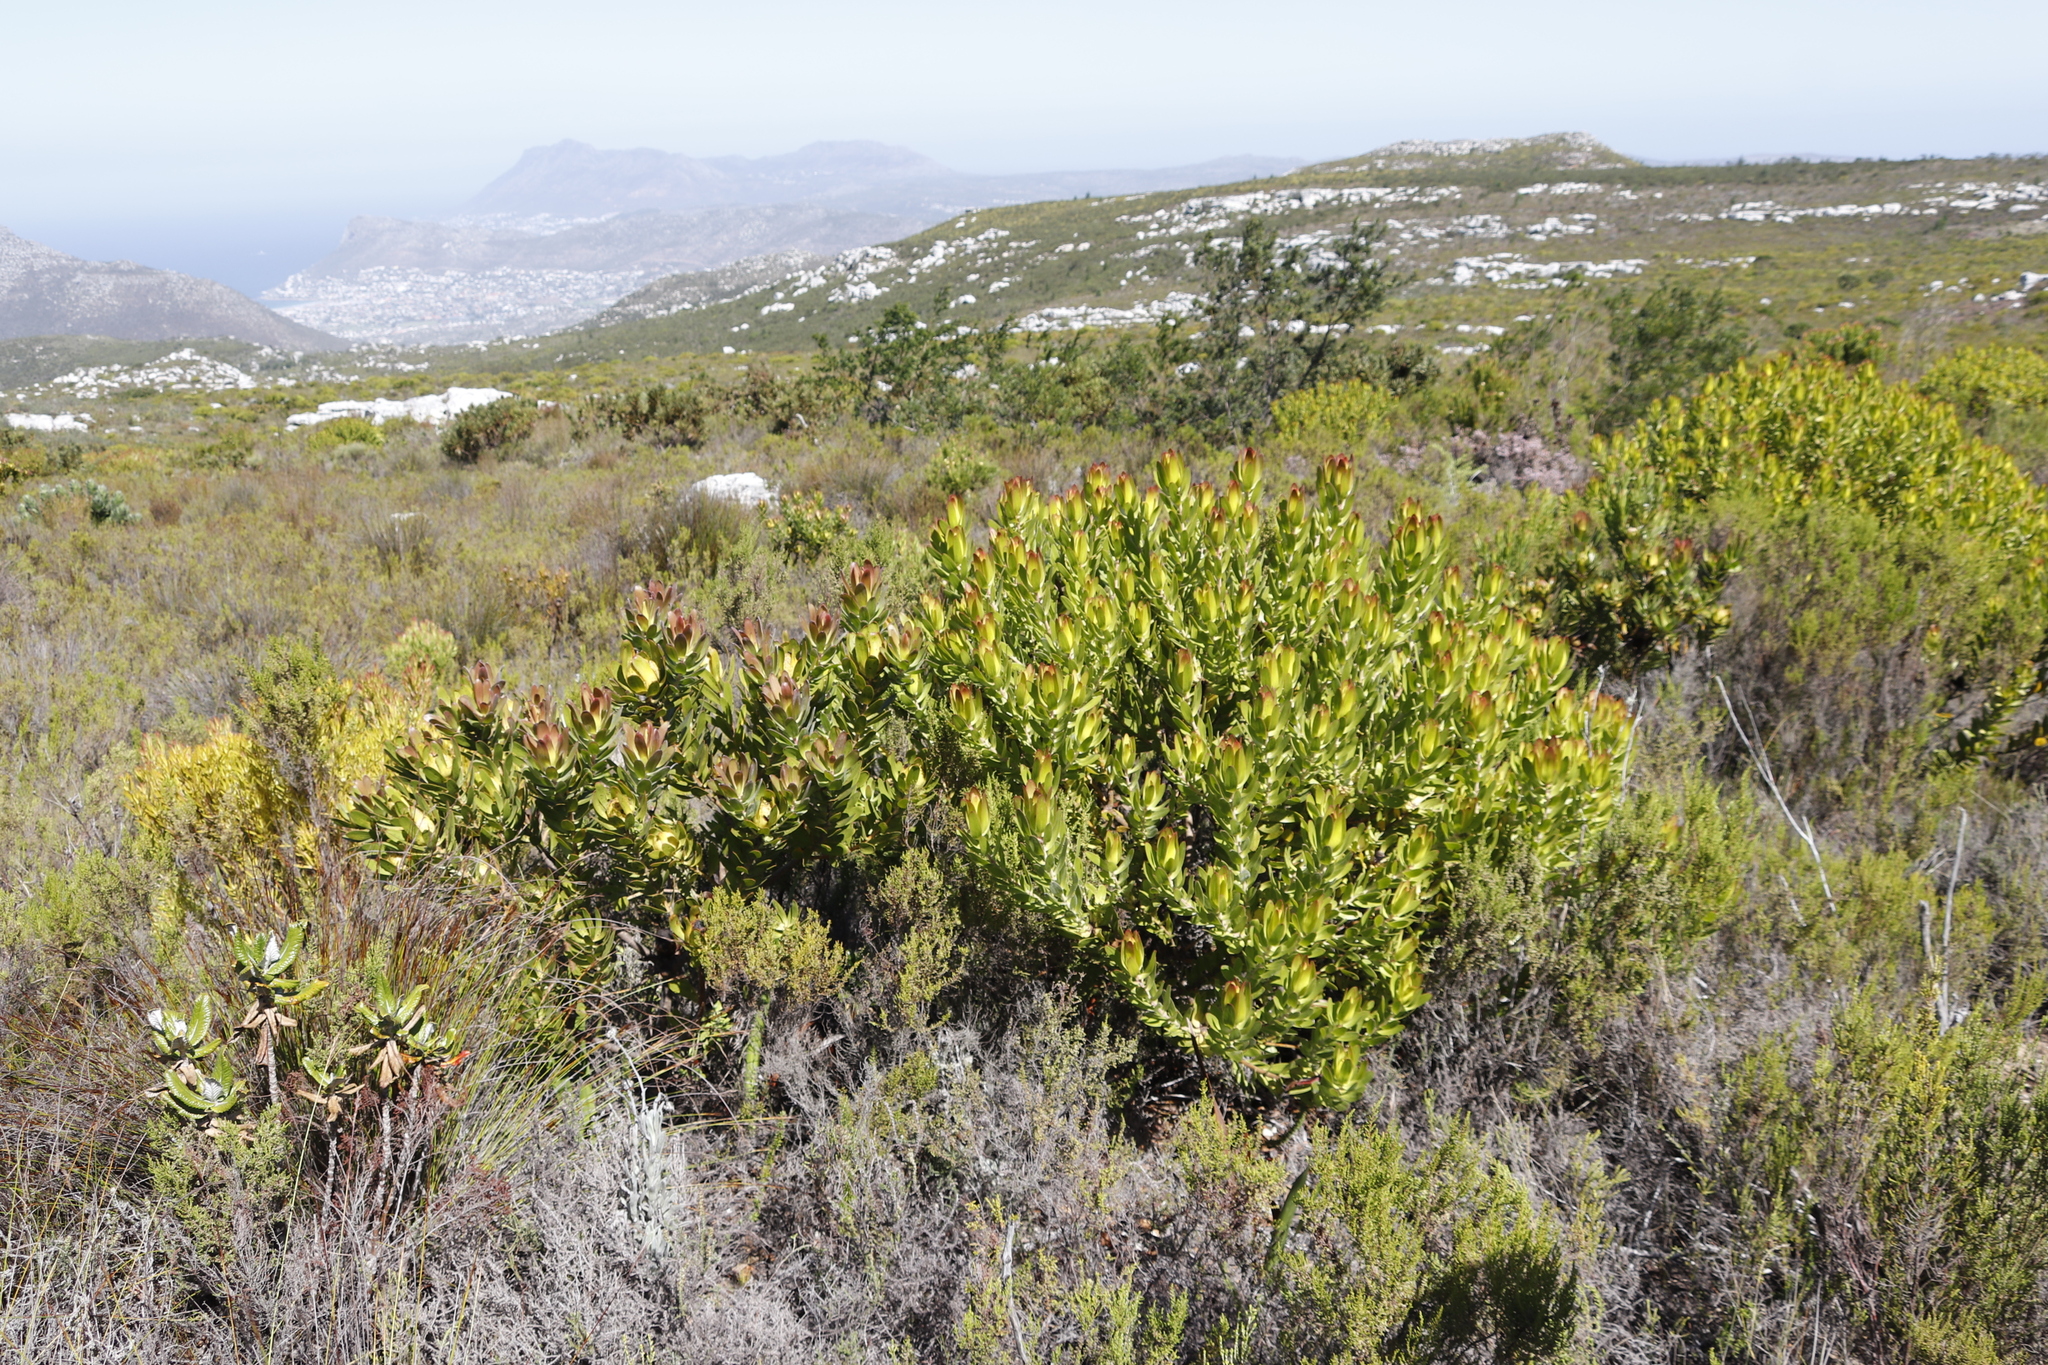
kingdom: Plantae
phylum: Tracheophyta
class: Magnoliopsida
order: Proteales
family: Proteaceae
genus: Leucadendron
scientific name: Leucadendron laureolum
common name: Golden sunshinebush
